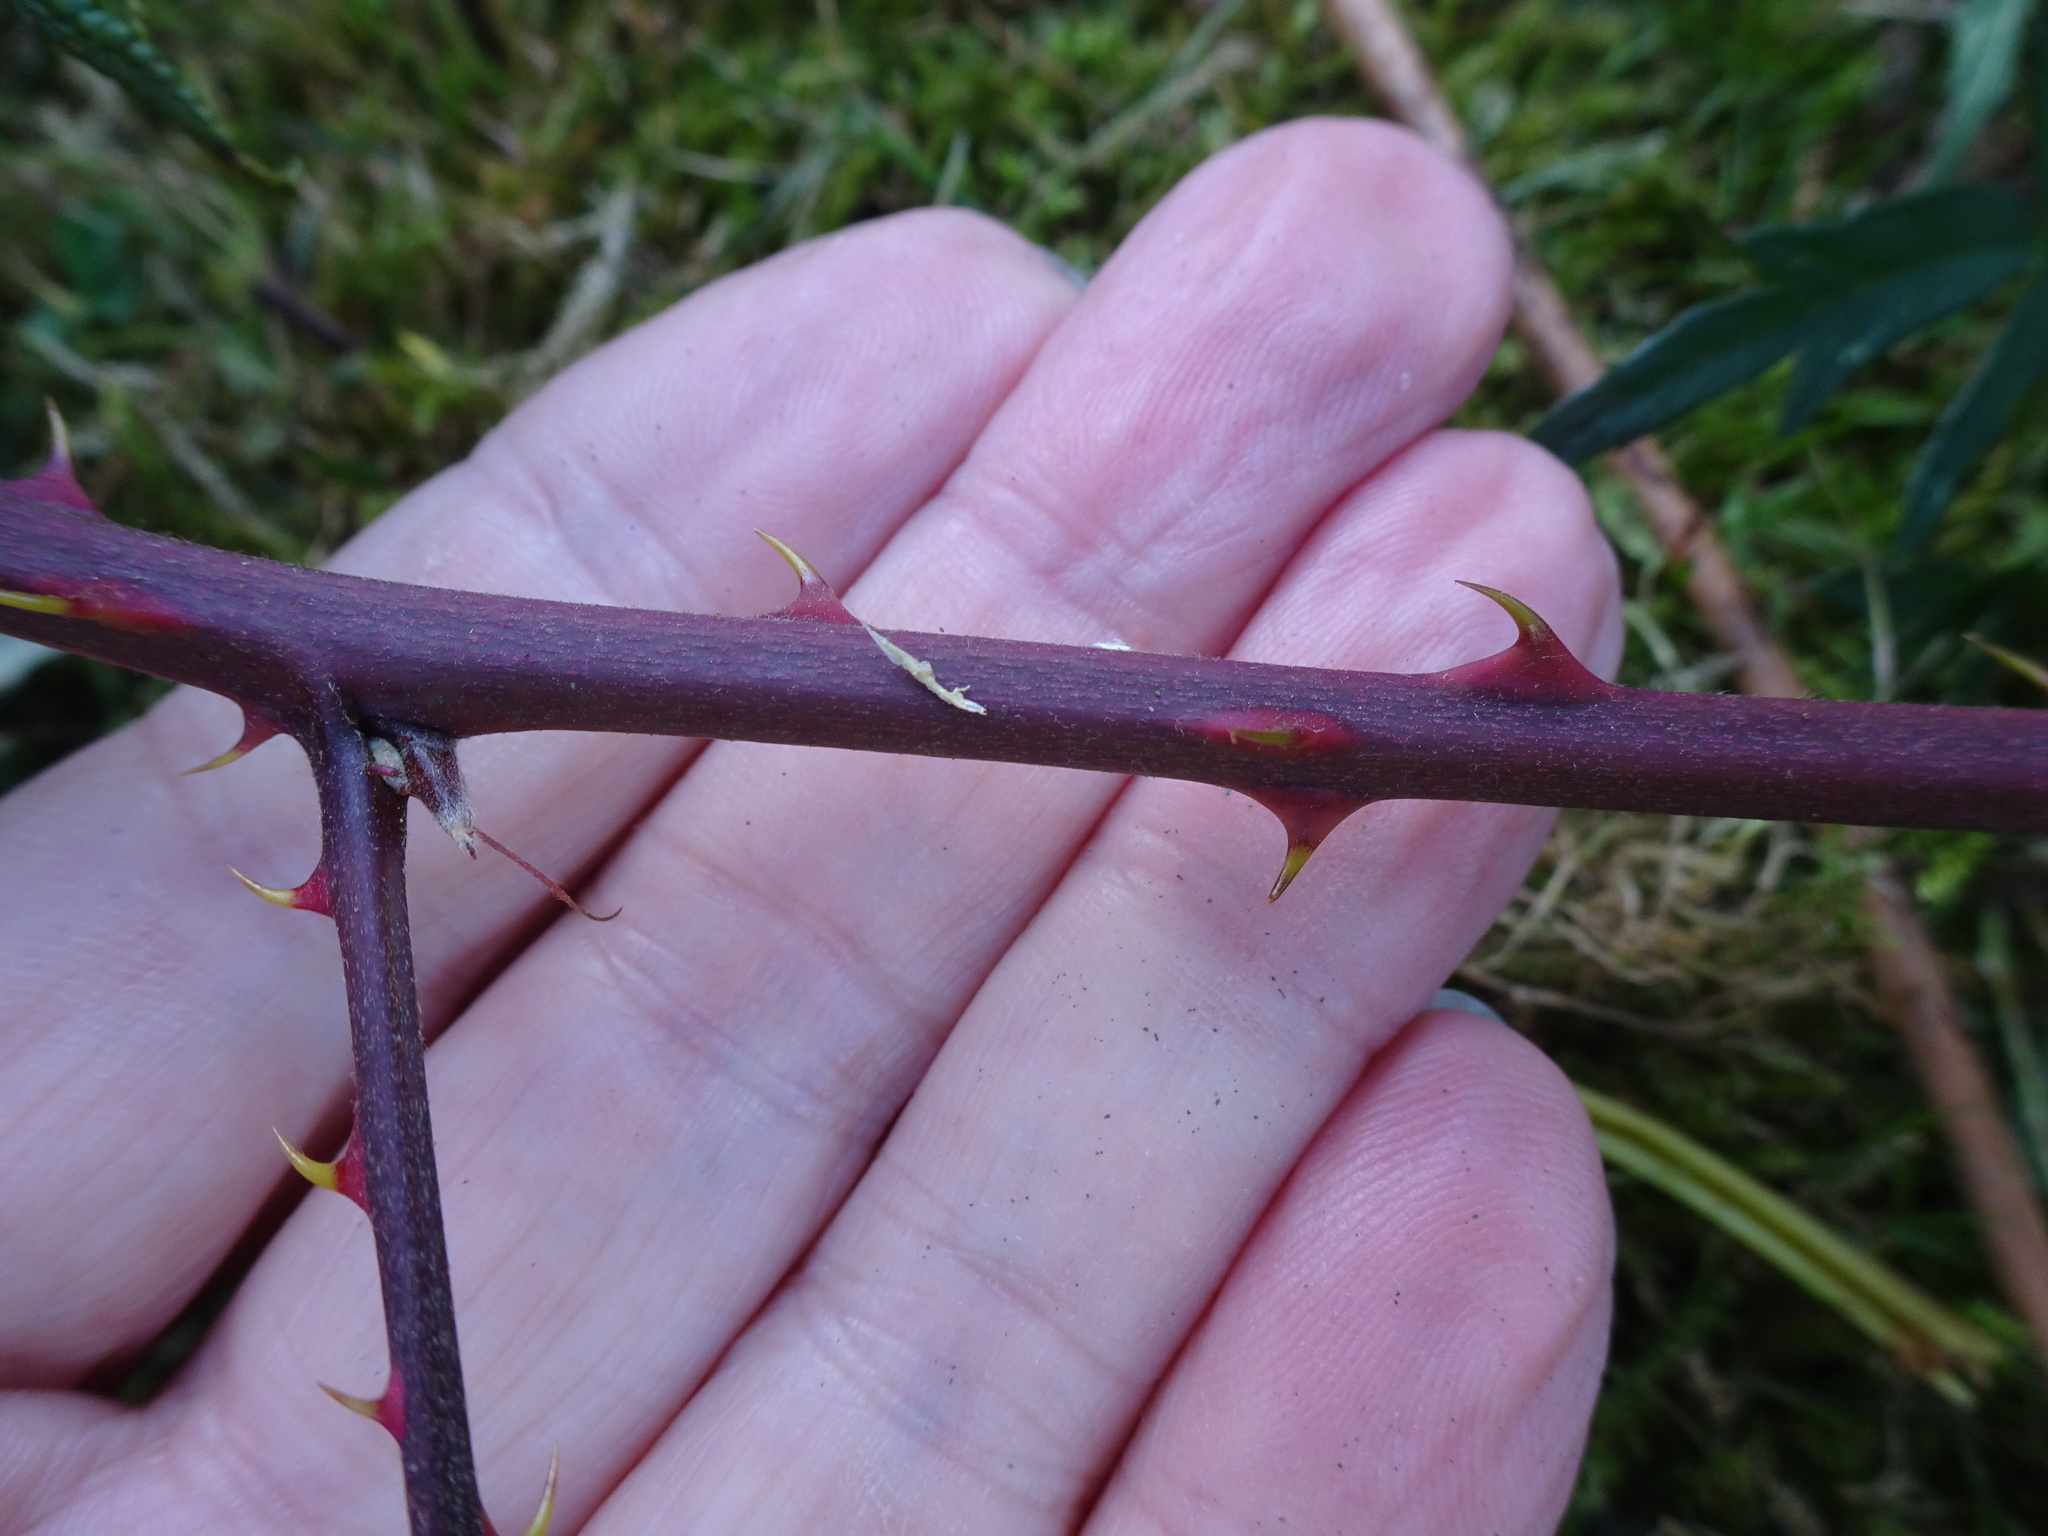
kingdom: Plantae
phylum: Tracheophyta
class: Magnoliopsida
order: Rosales
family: Rosaceae
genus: Rubus
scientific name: Rubus laciniatus
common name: Evergreen blackberry
